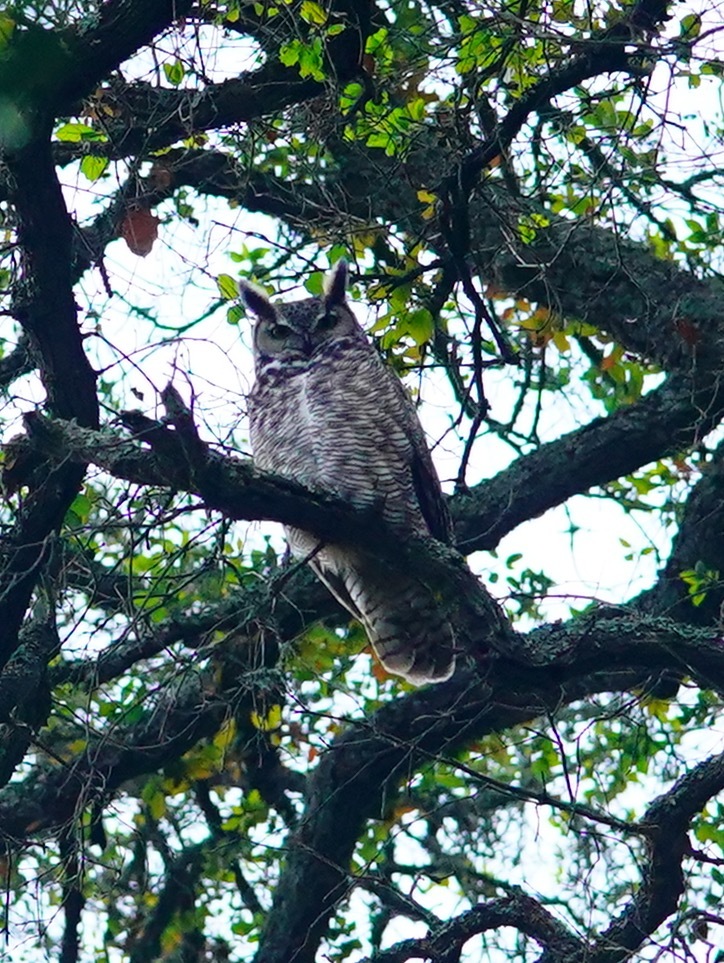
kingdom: Animalia
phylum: Chordata
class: Aves
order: Strigiformes
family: Strigidae
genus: Bubo
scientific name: Bubo virginianus
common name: Great horned owl
